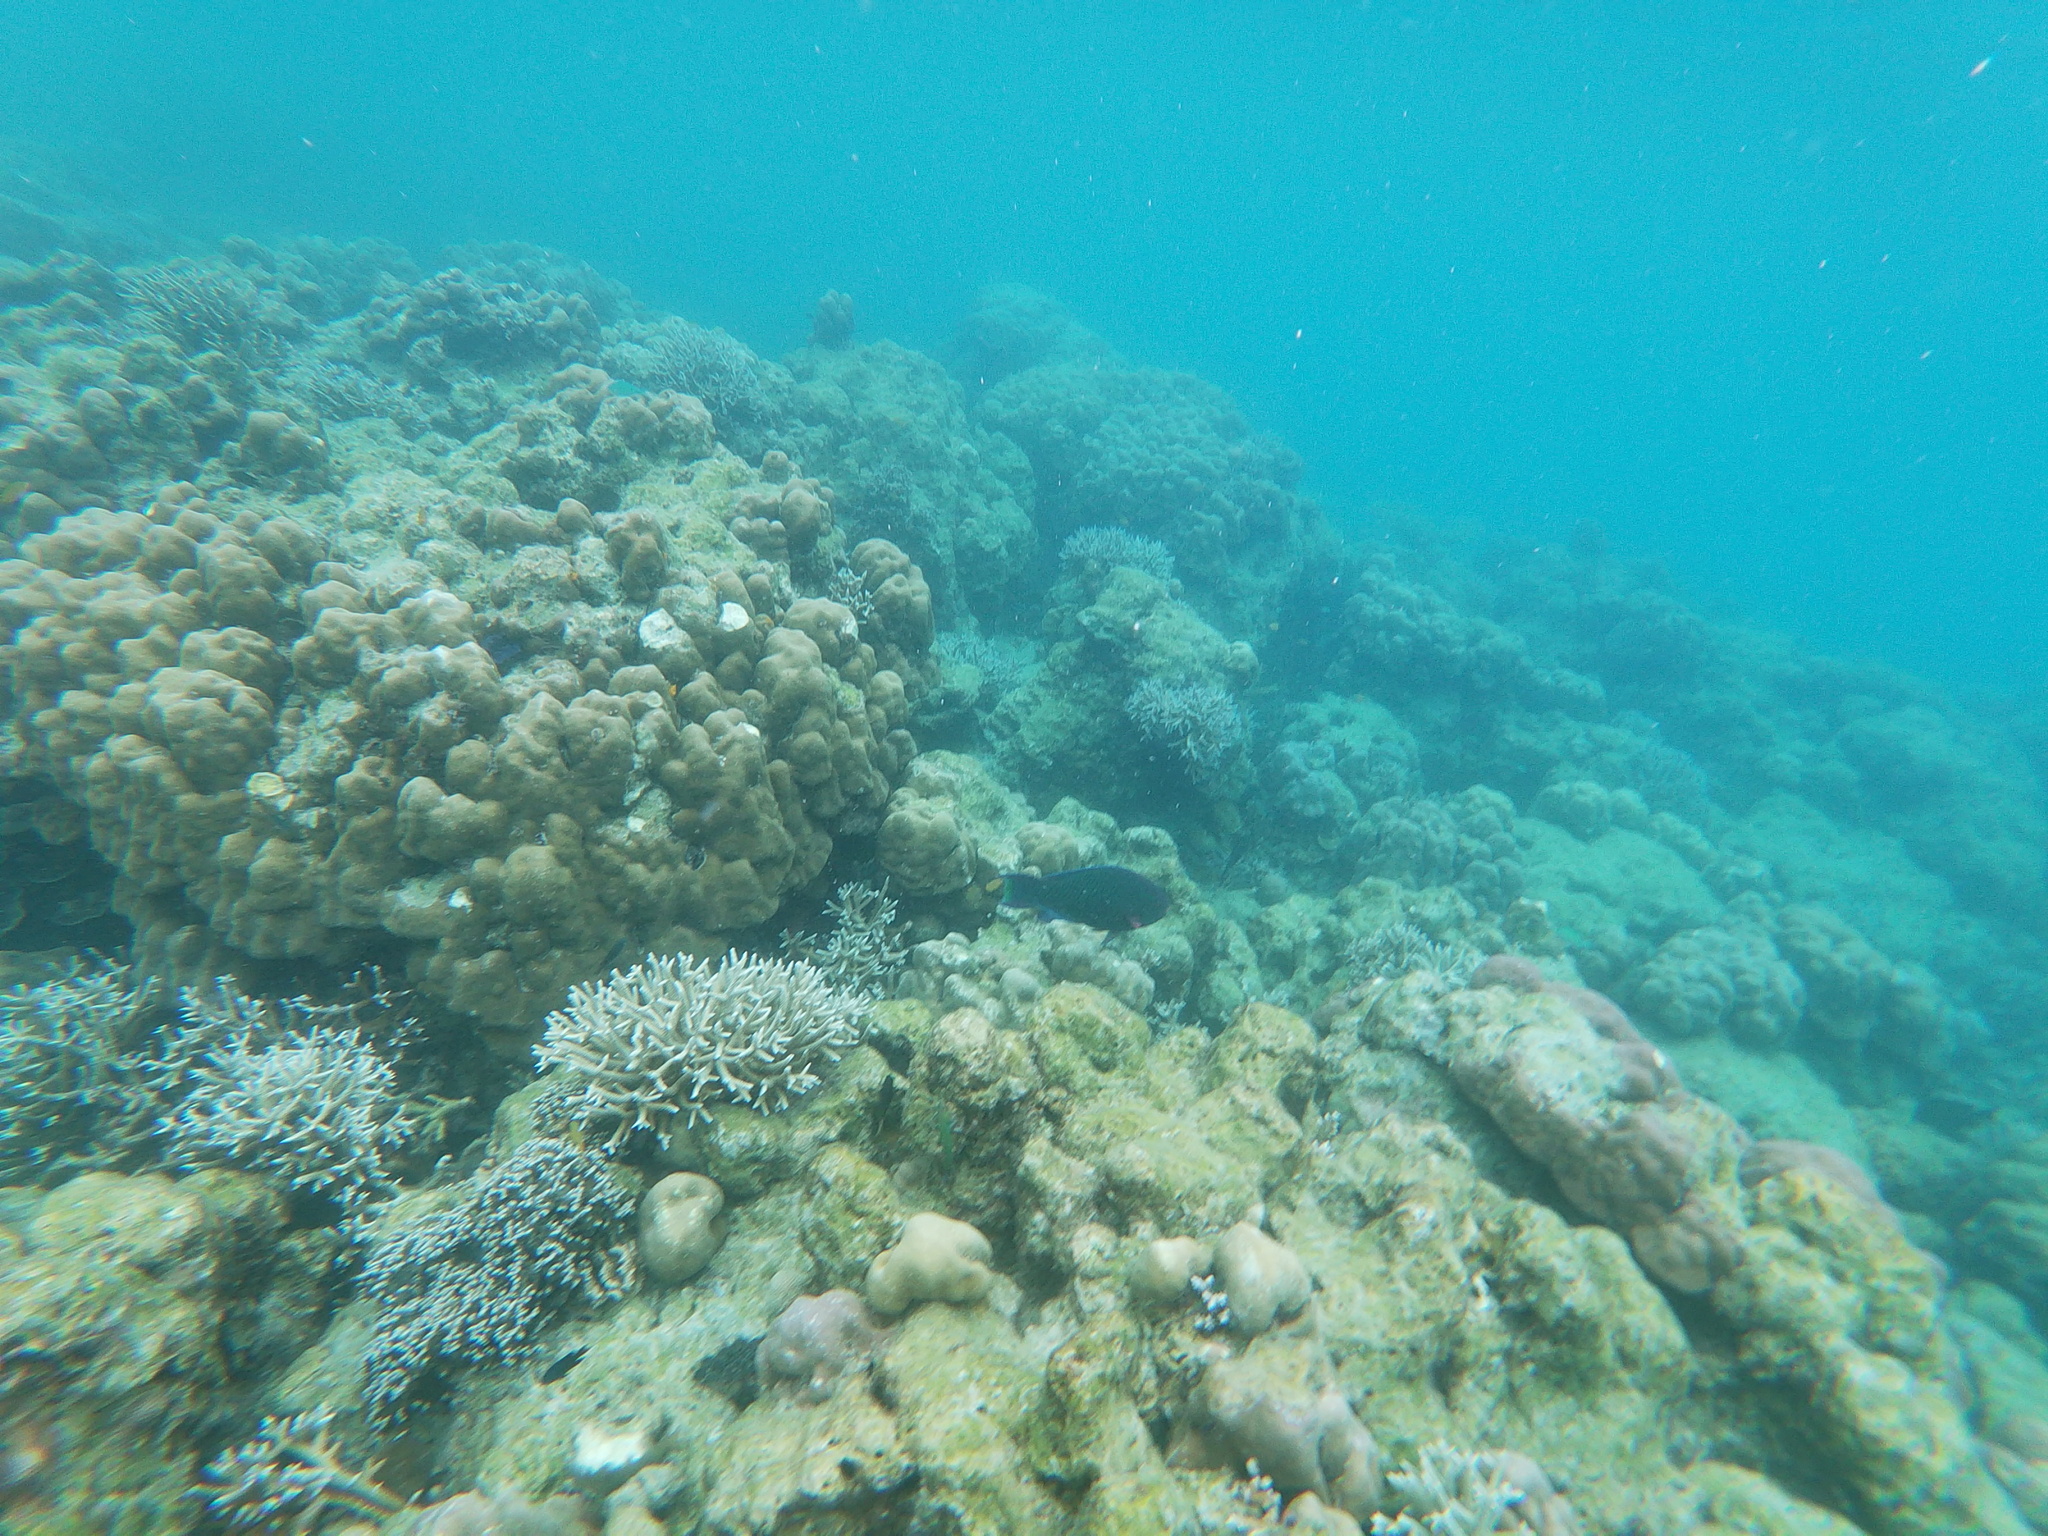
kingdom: Animalia
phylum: Chordata
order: Perciformes
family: Scaridae
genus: Scarus
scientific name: Scarus niger
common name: Dusky parrotfish
